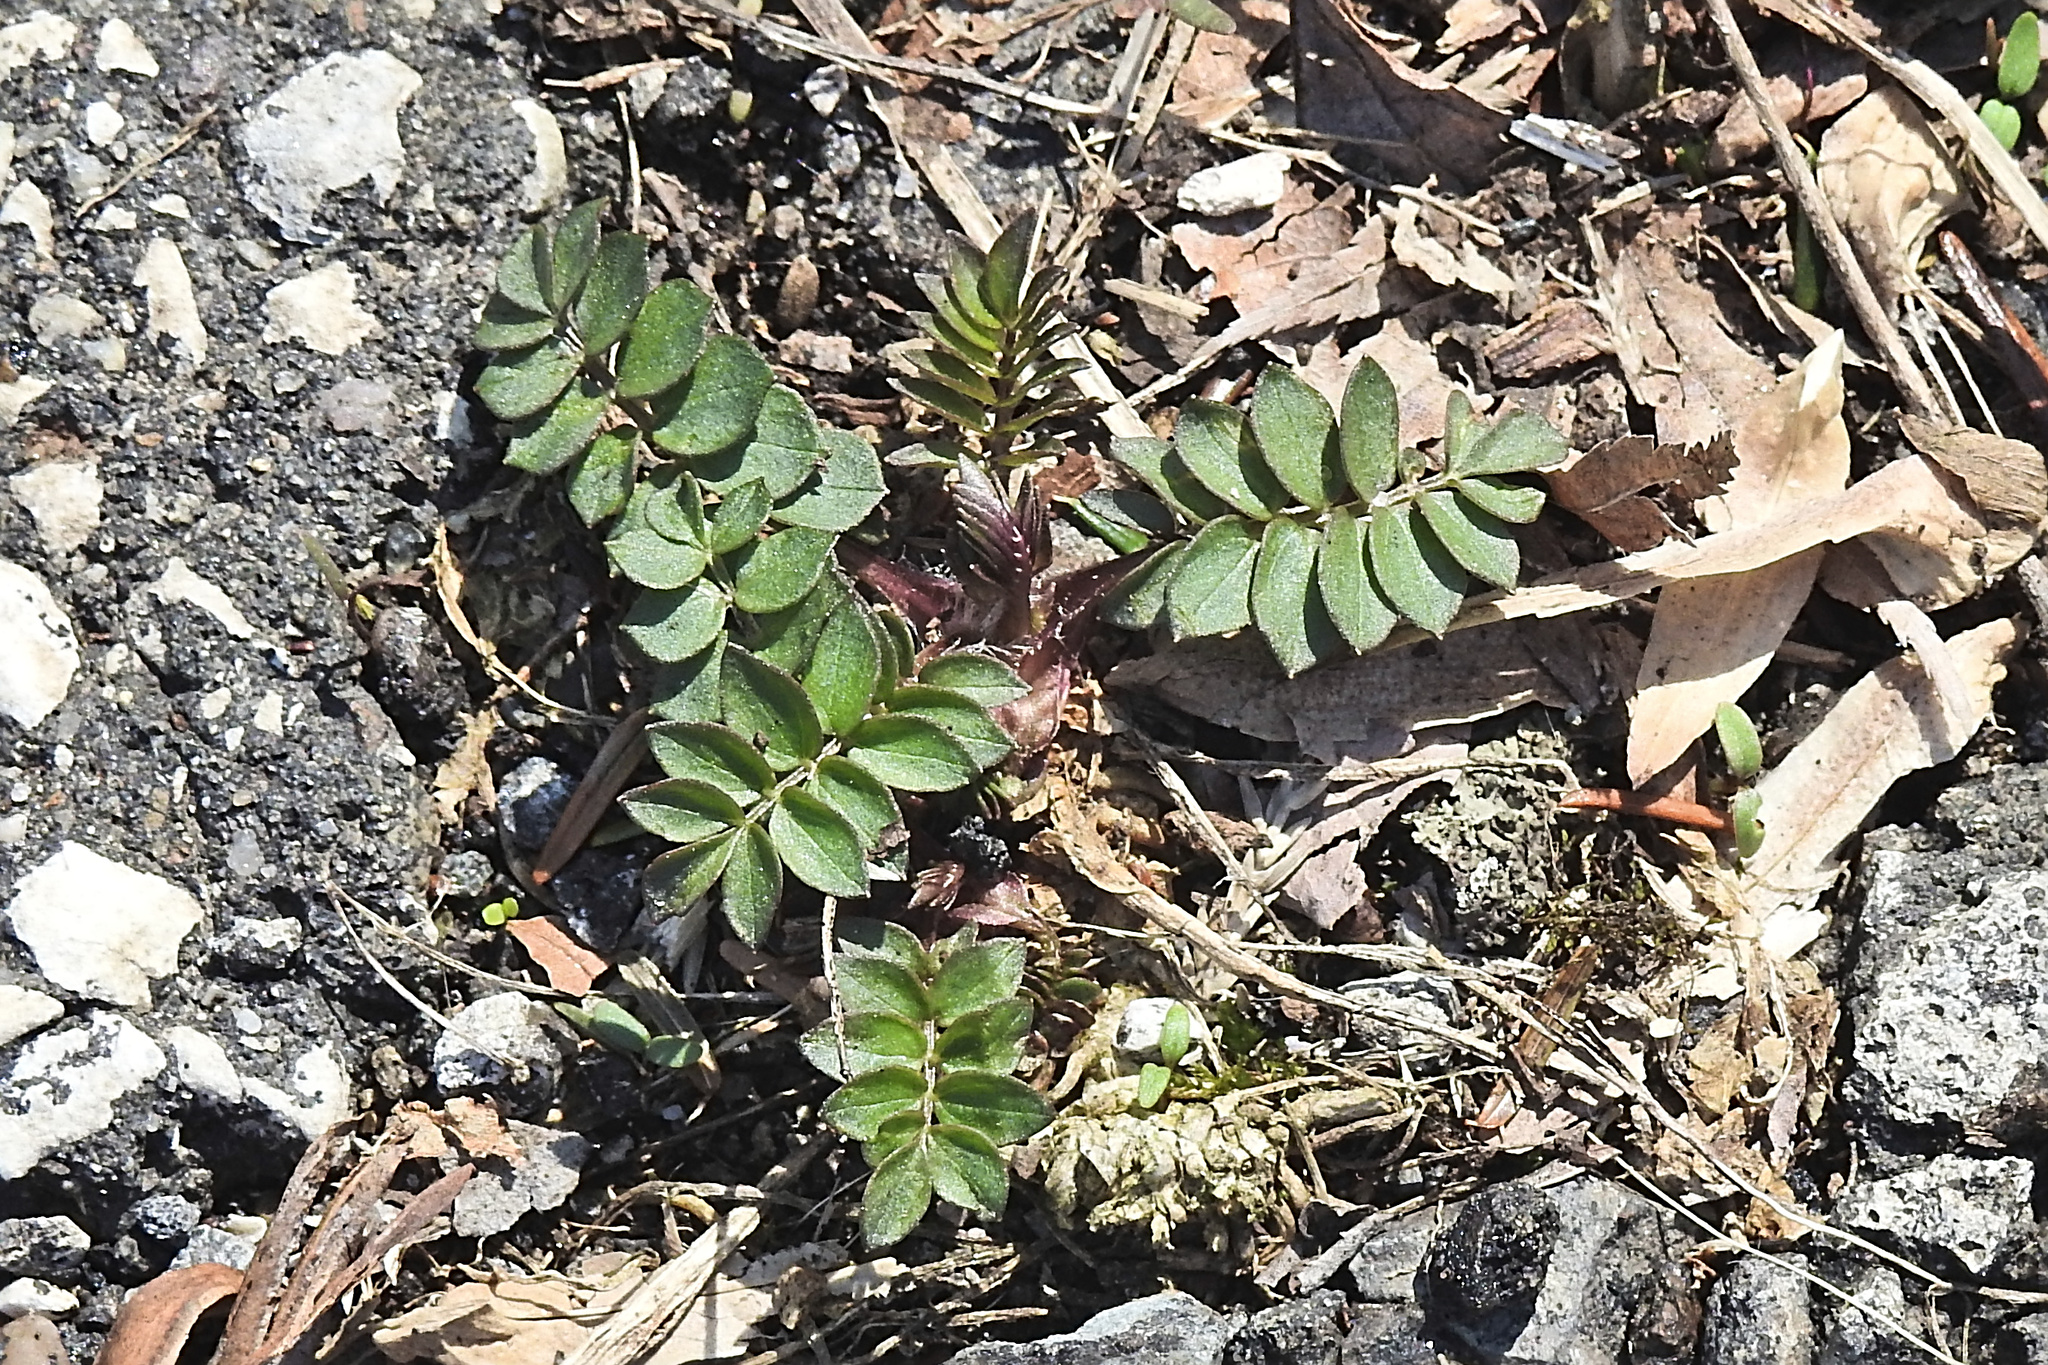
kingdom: Plantae
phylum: Tracheophyta
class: Magnoliopsida
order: Ericales
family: Polemoniaceae
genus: Polemonium
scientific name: Polemonium reptans
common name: Creeping jacob's-ladder
